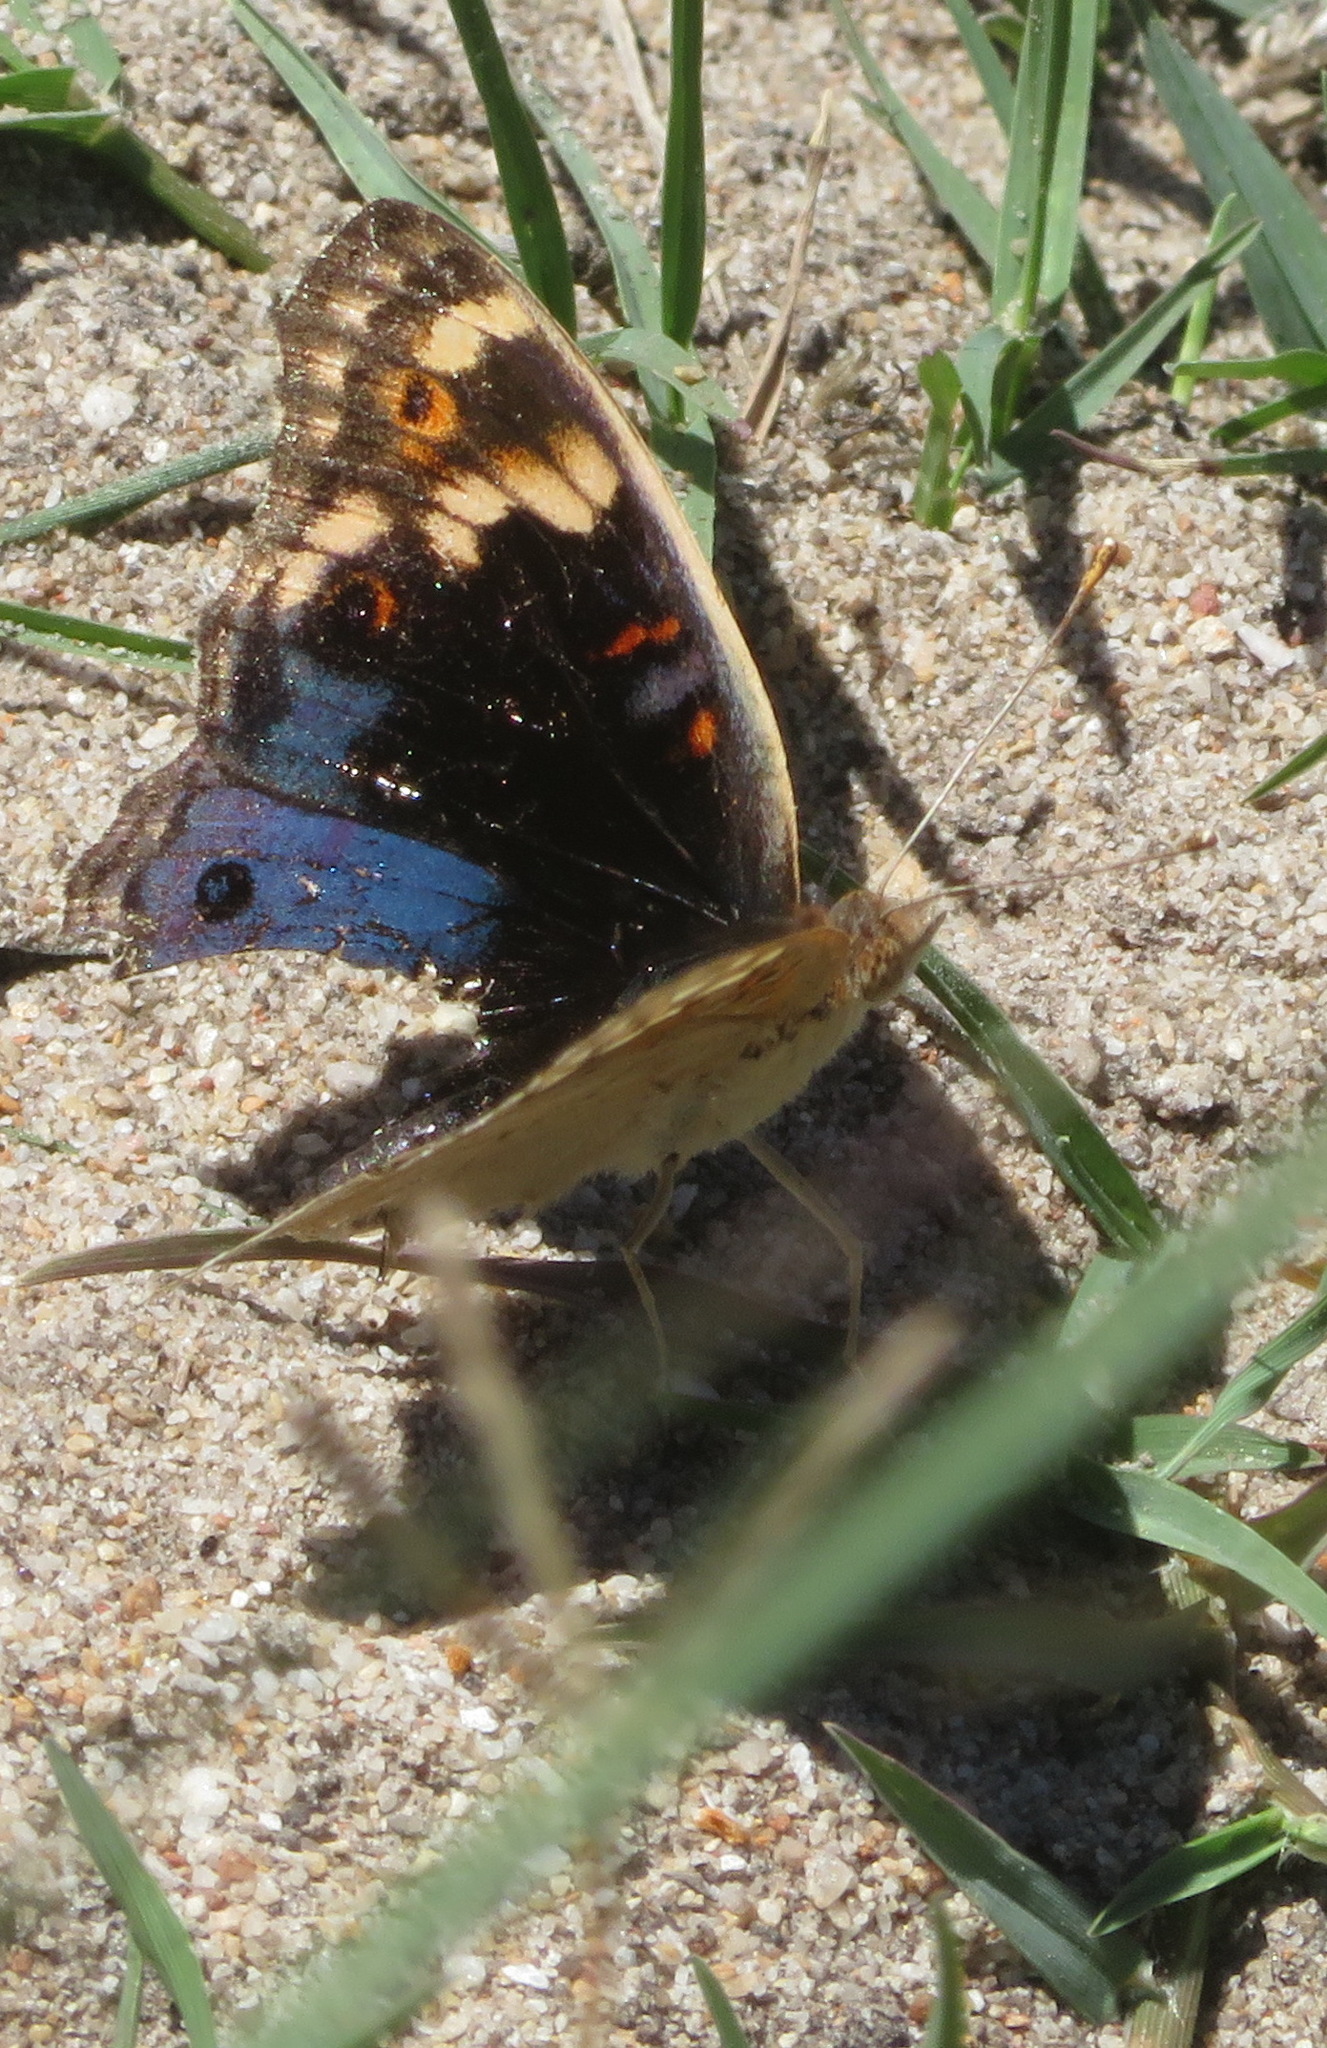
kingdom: Animalia
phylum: Arthropoda
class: Insecta
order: Lepidoptera
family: Nymphalidae
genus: Junonia
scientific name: Junonia orithya
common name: Blue pansy
